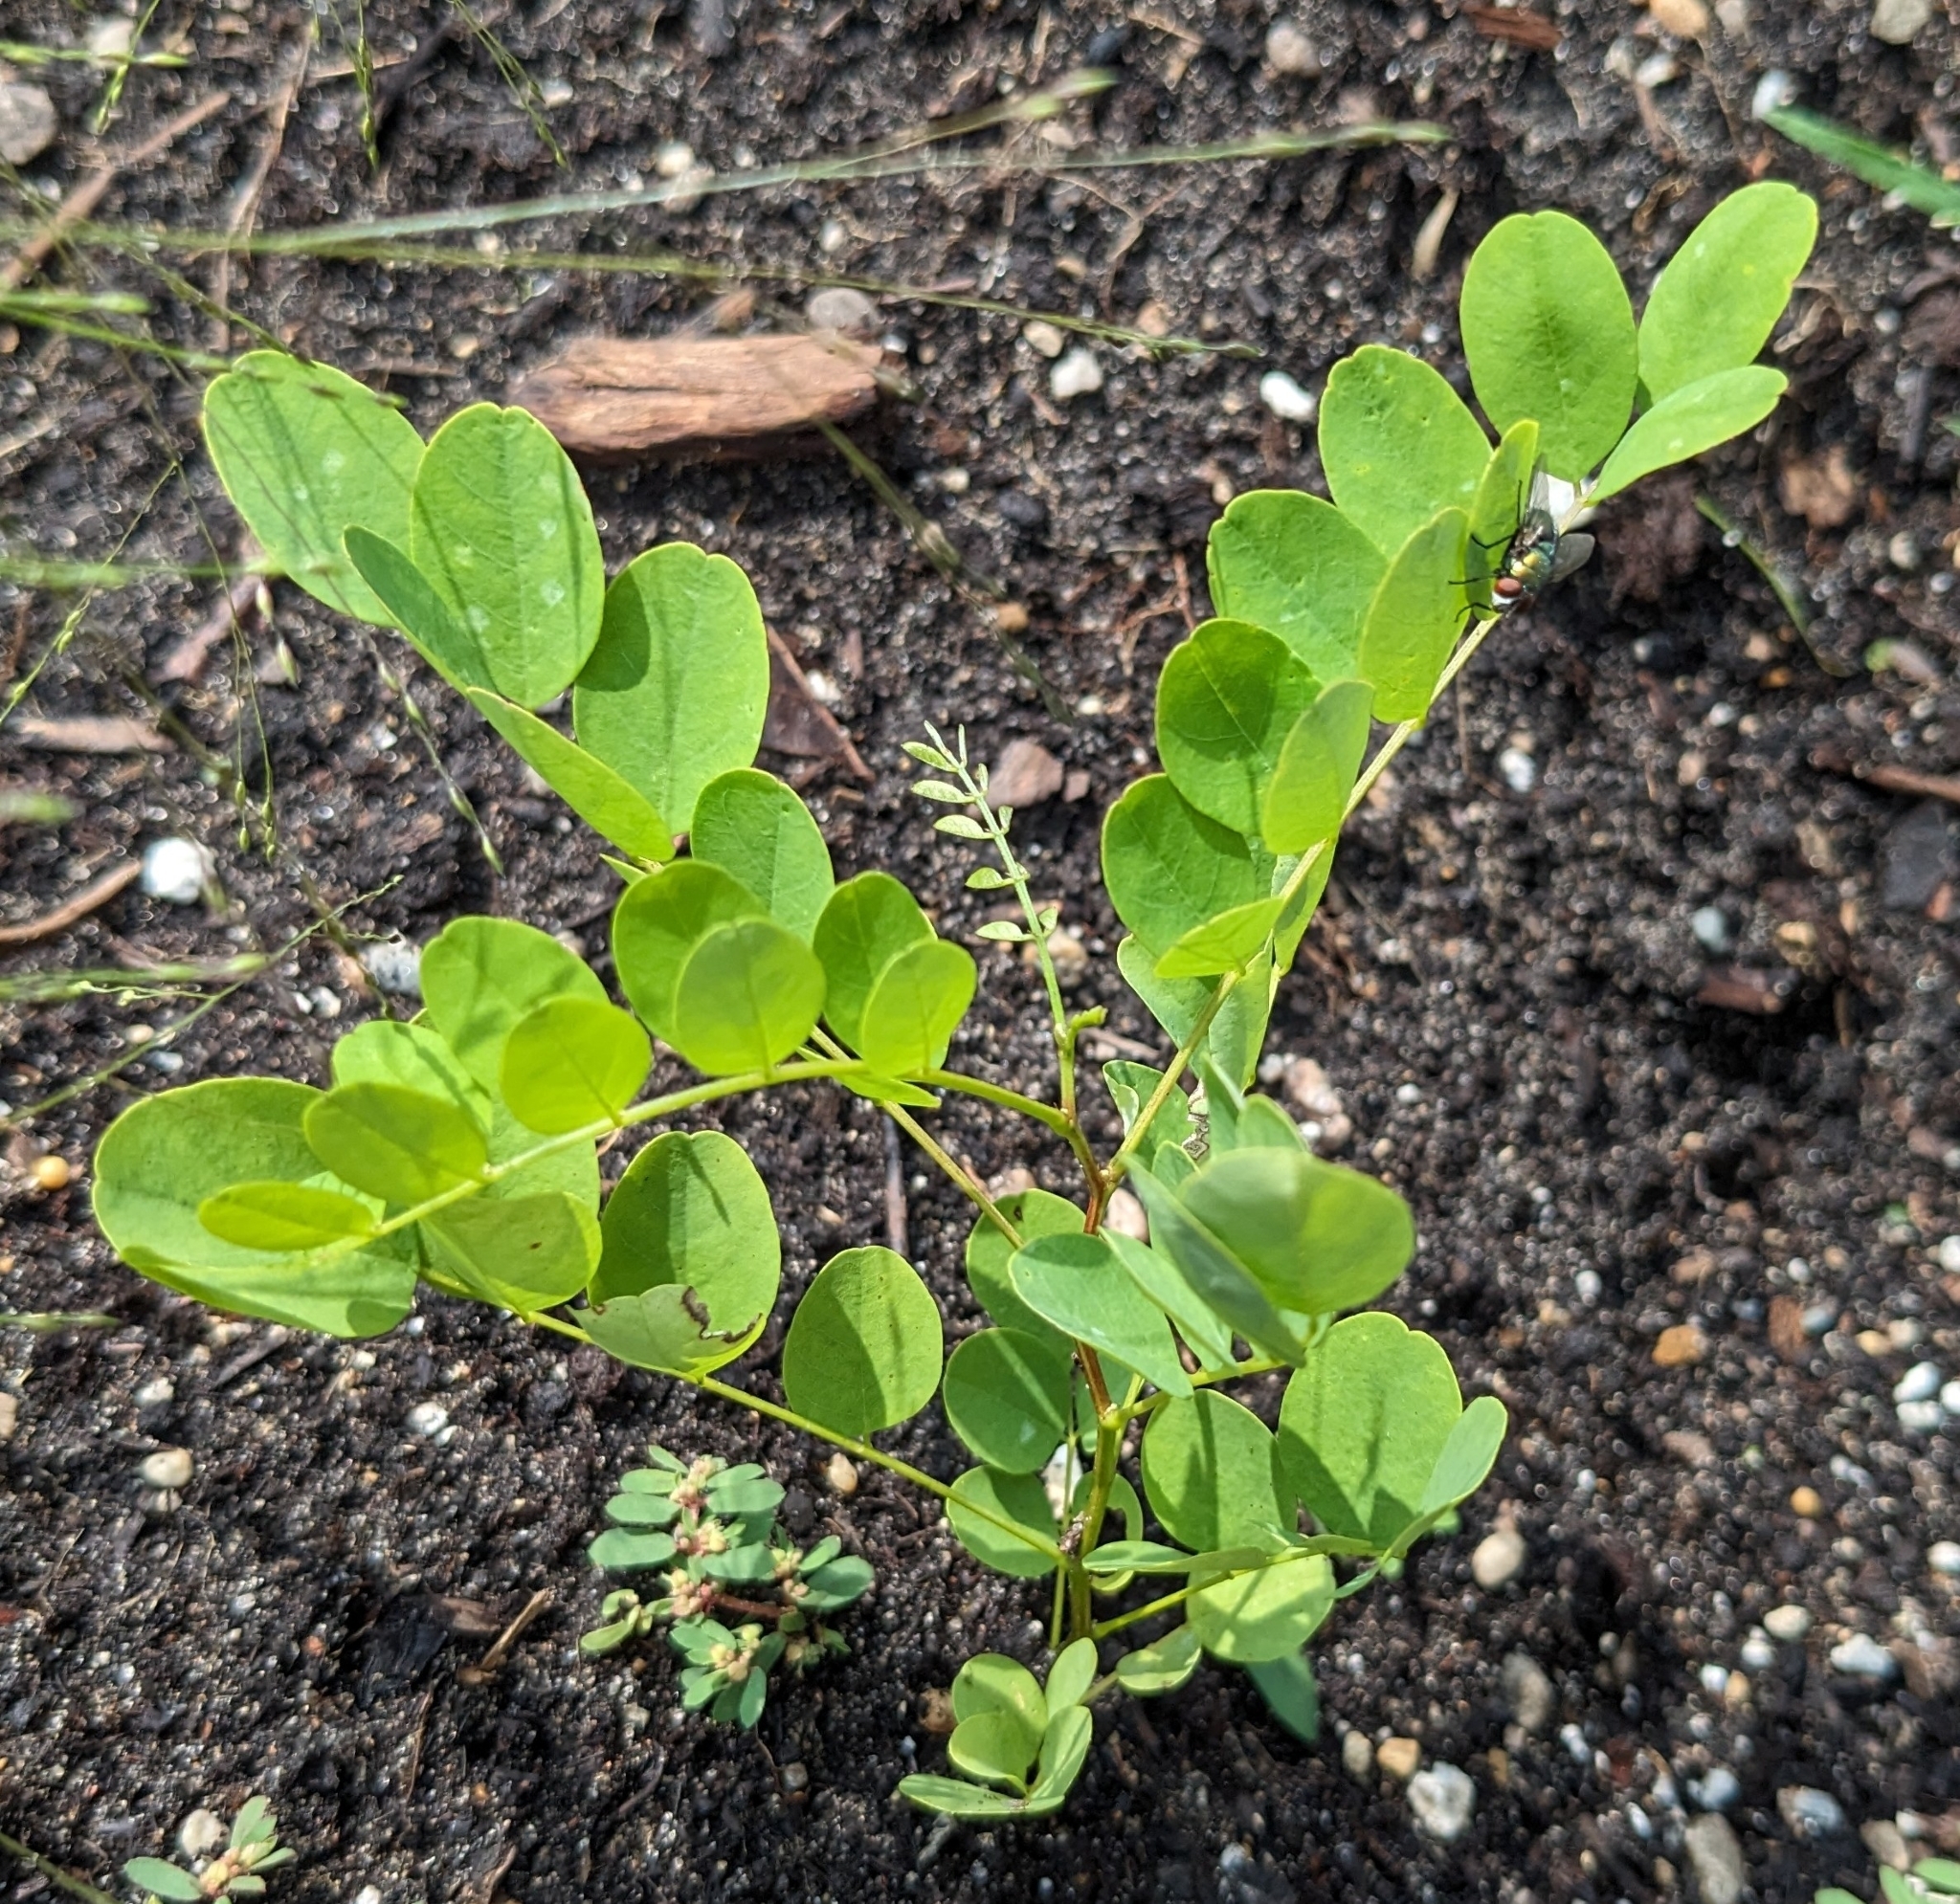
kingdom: Plantae
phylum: Tracheophyta
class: Magnoliopsida
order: Fabales
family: Fabaceae
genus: Robinia
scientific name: Robinia pseudoacacia
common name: Black locust
